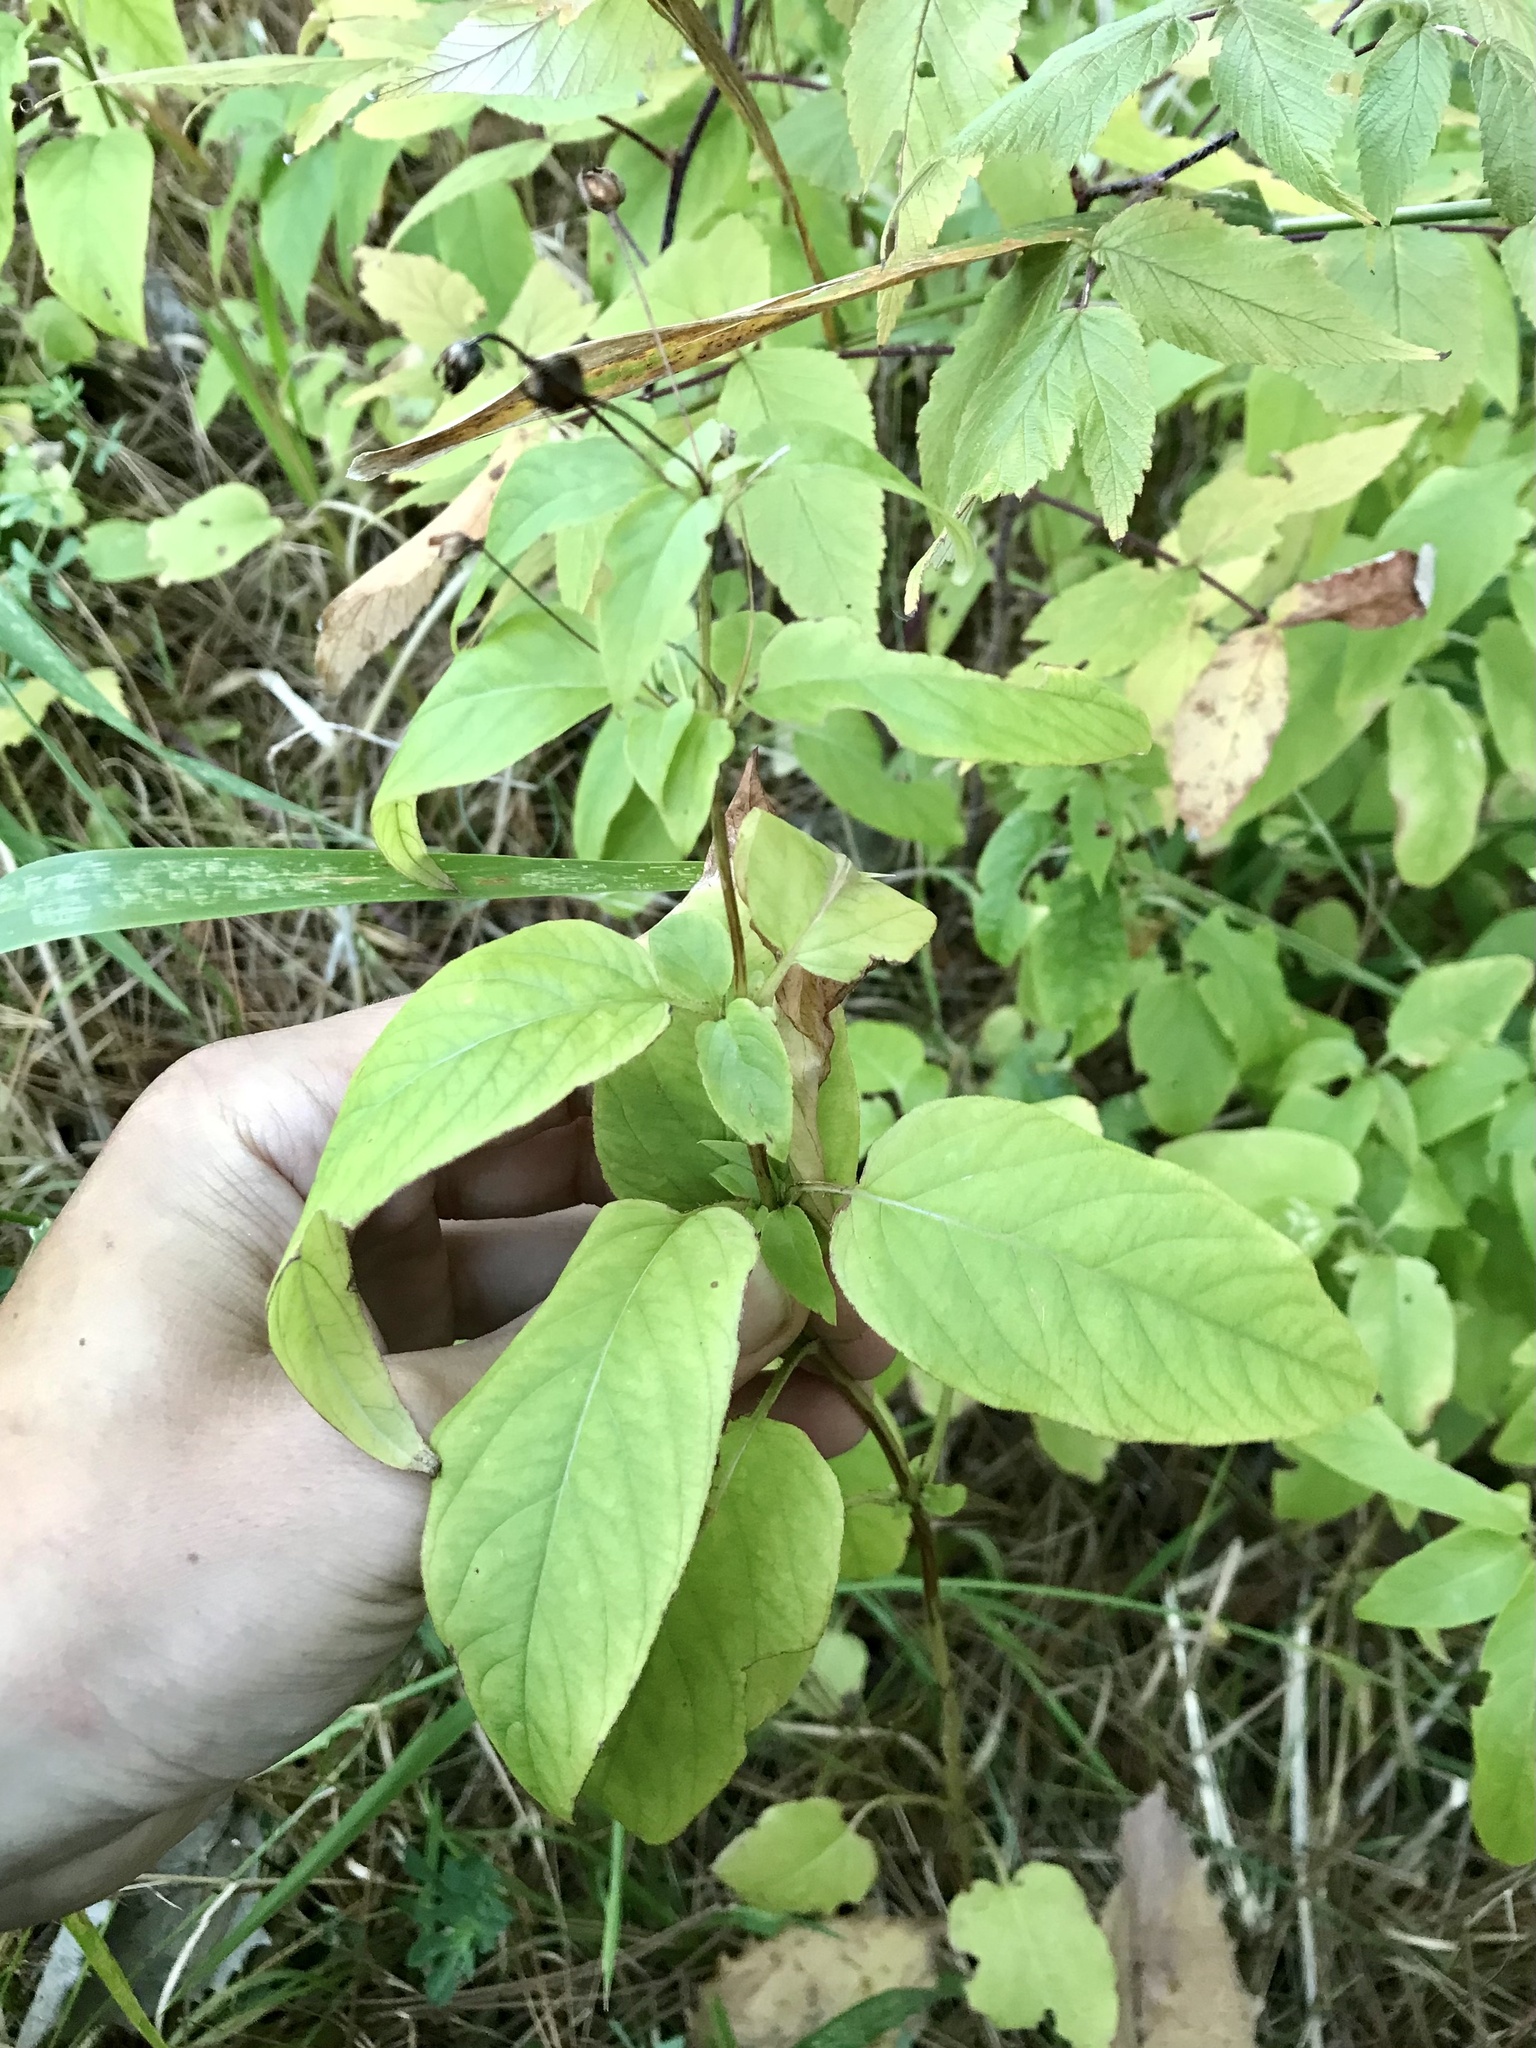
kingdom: Plantae
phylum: Tracheophyta
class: Magnoliopsida
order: Ericales
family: Primulaceae
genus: Lysimachia
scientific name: Lysimachia ciliata
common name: Fringed loosestrife
